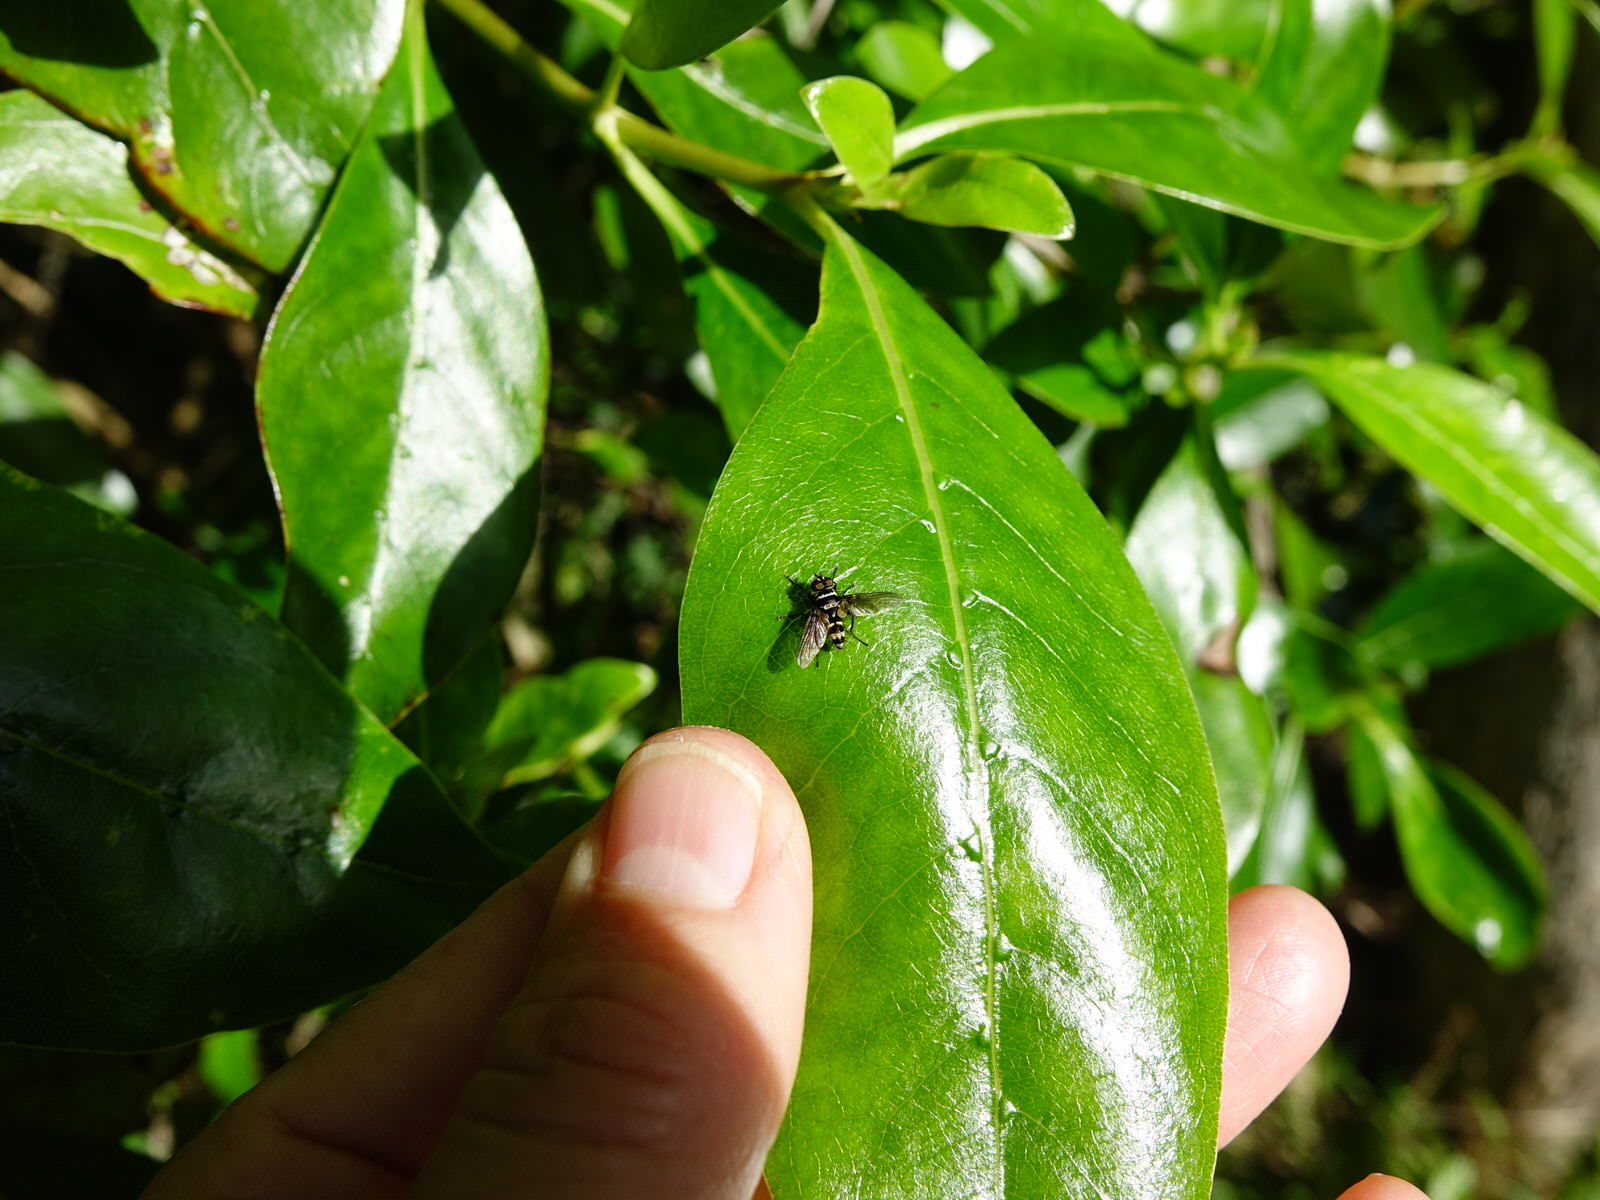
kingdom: Animalia
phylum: Arthropoda
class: Insecta
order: Diptera
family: Tachinidae
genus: Trigonospila
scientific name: Trigonospila brevifacies
